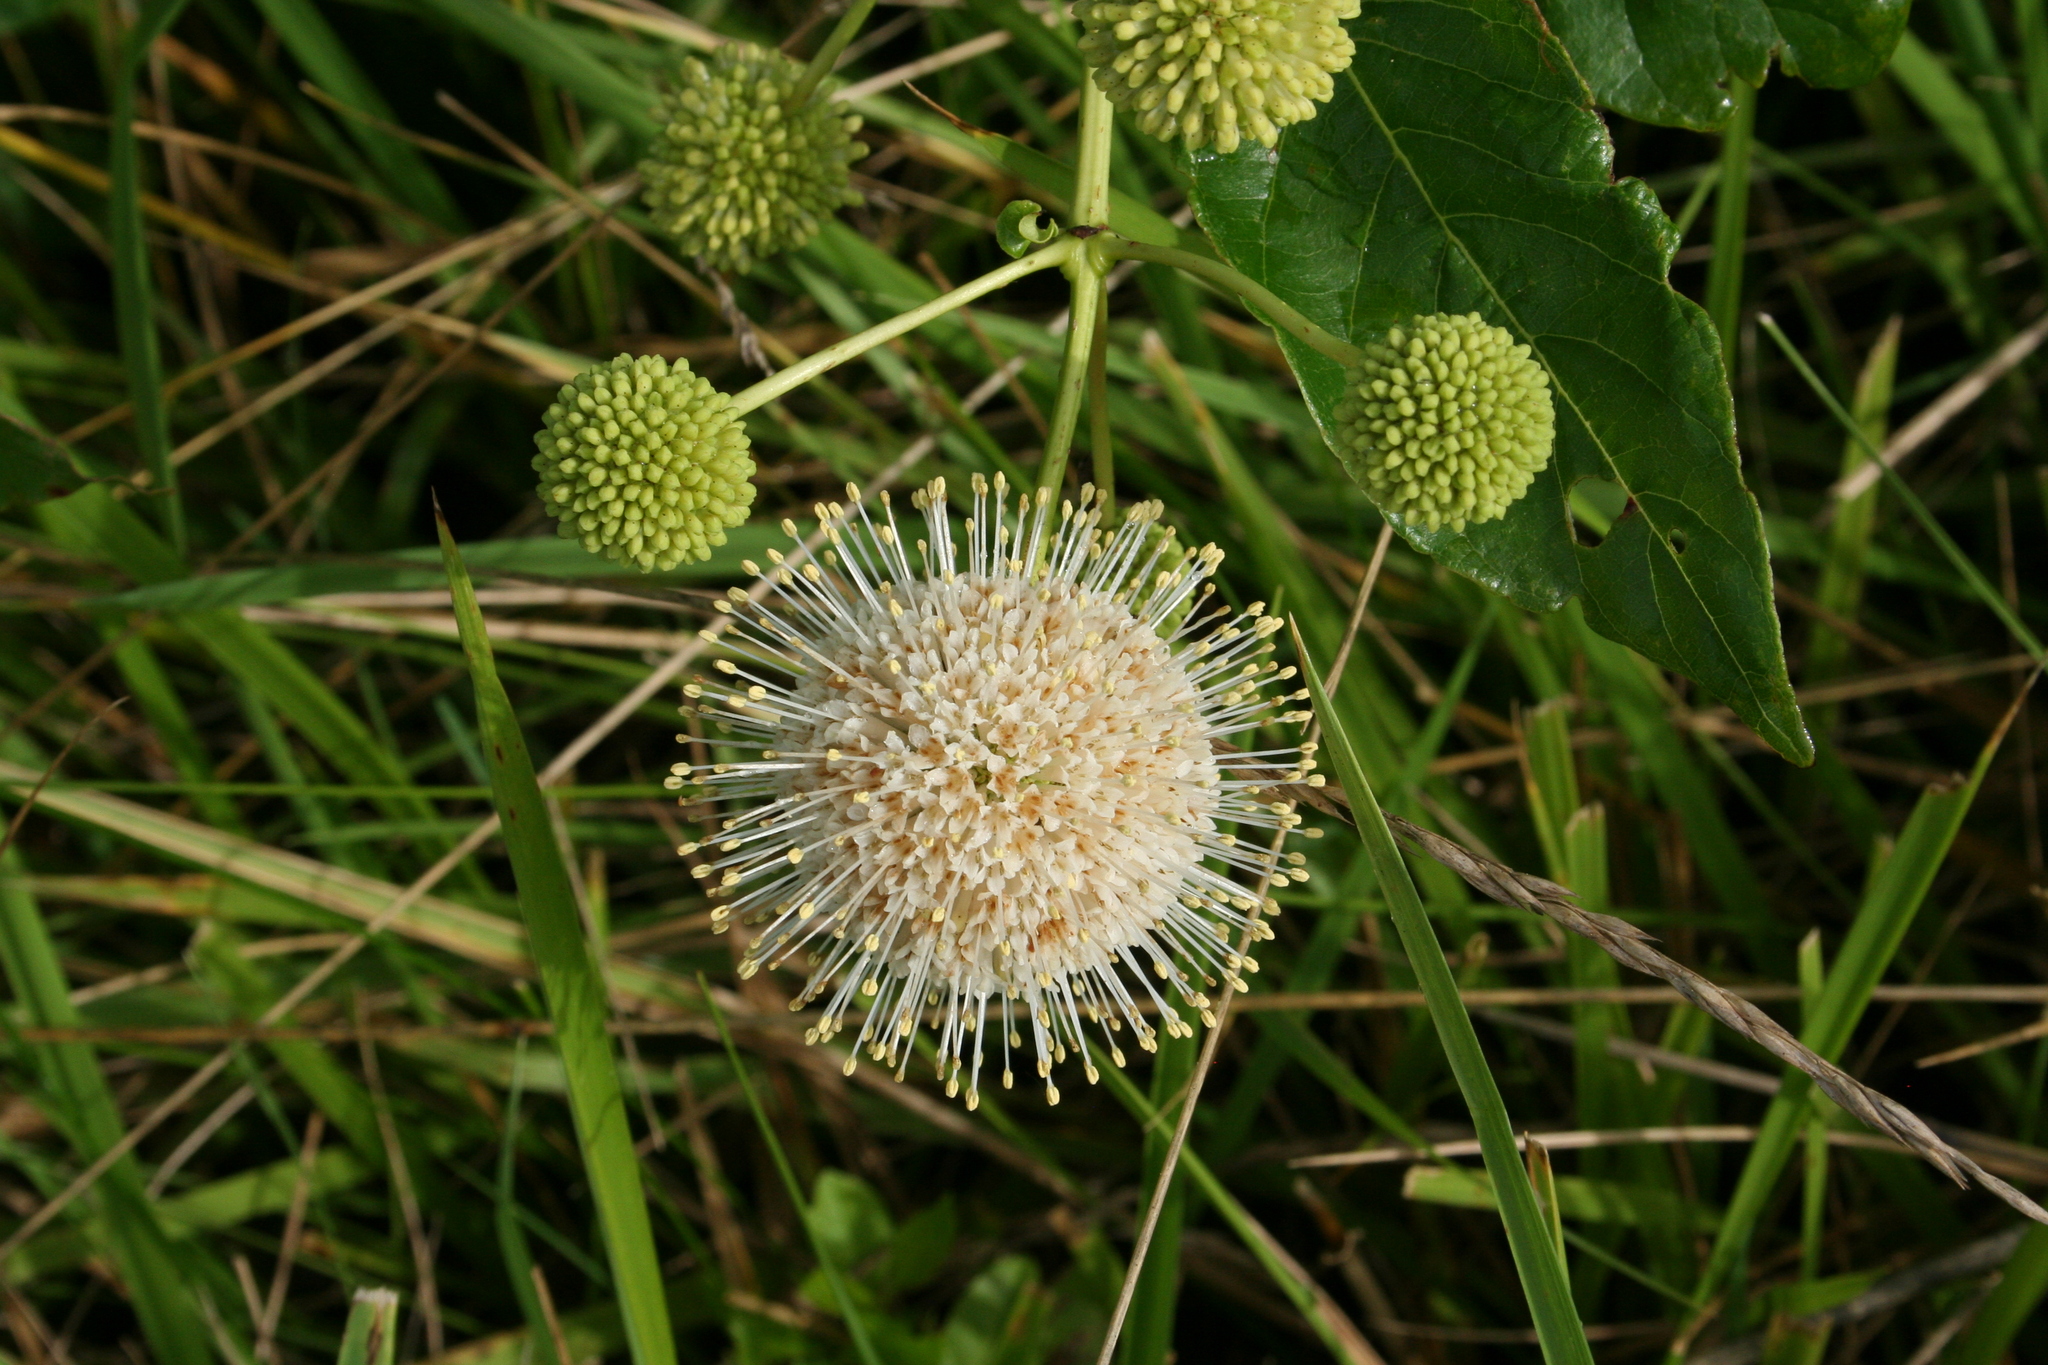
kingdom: Plantae
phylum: Tracheophyta
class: Magnoliopsida
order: Gentianales
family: Rubiaceae
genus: Cephalanthus
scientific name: Cephalanthus occidentalis
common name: Button-willow
